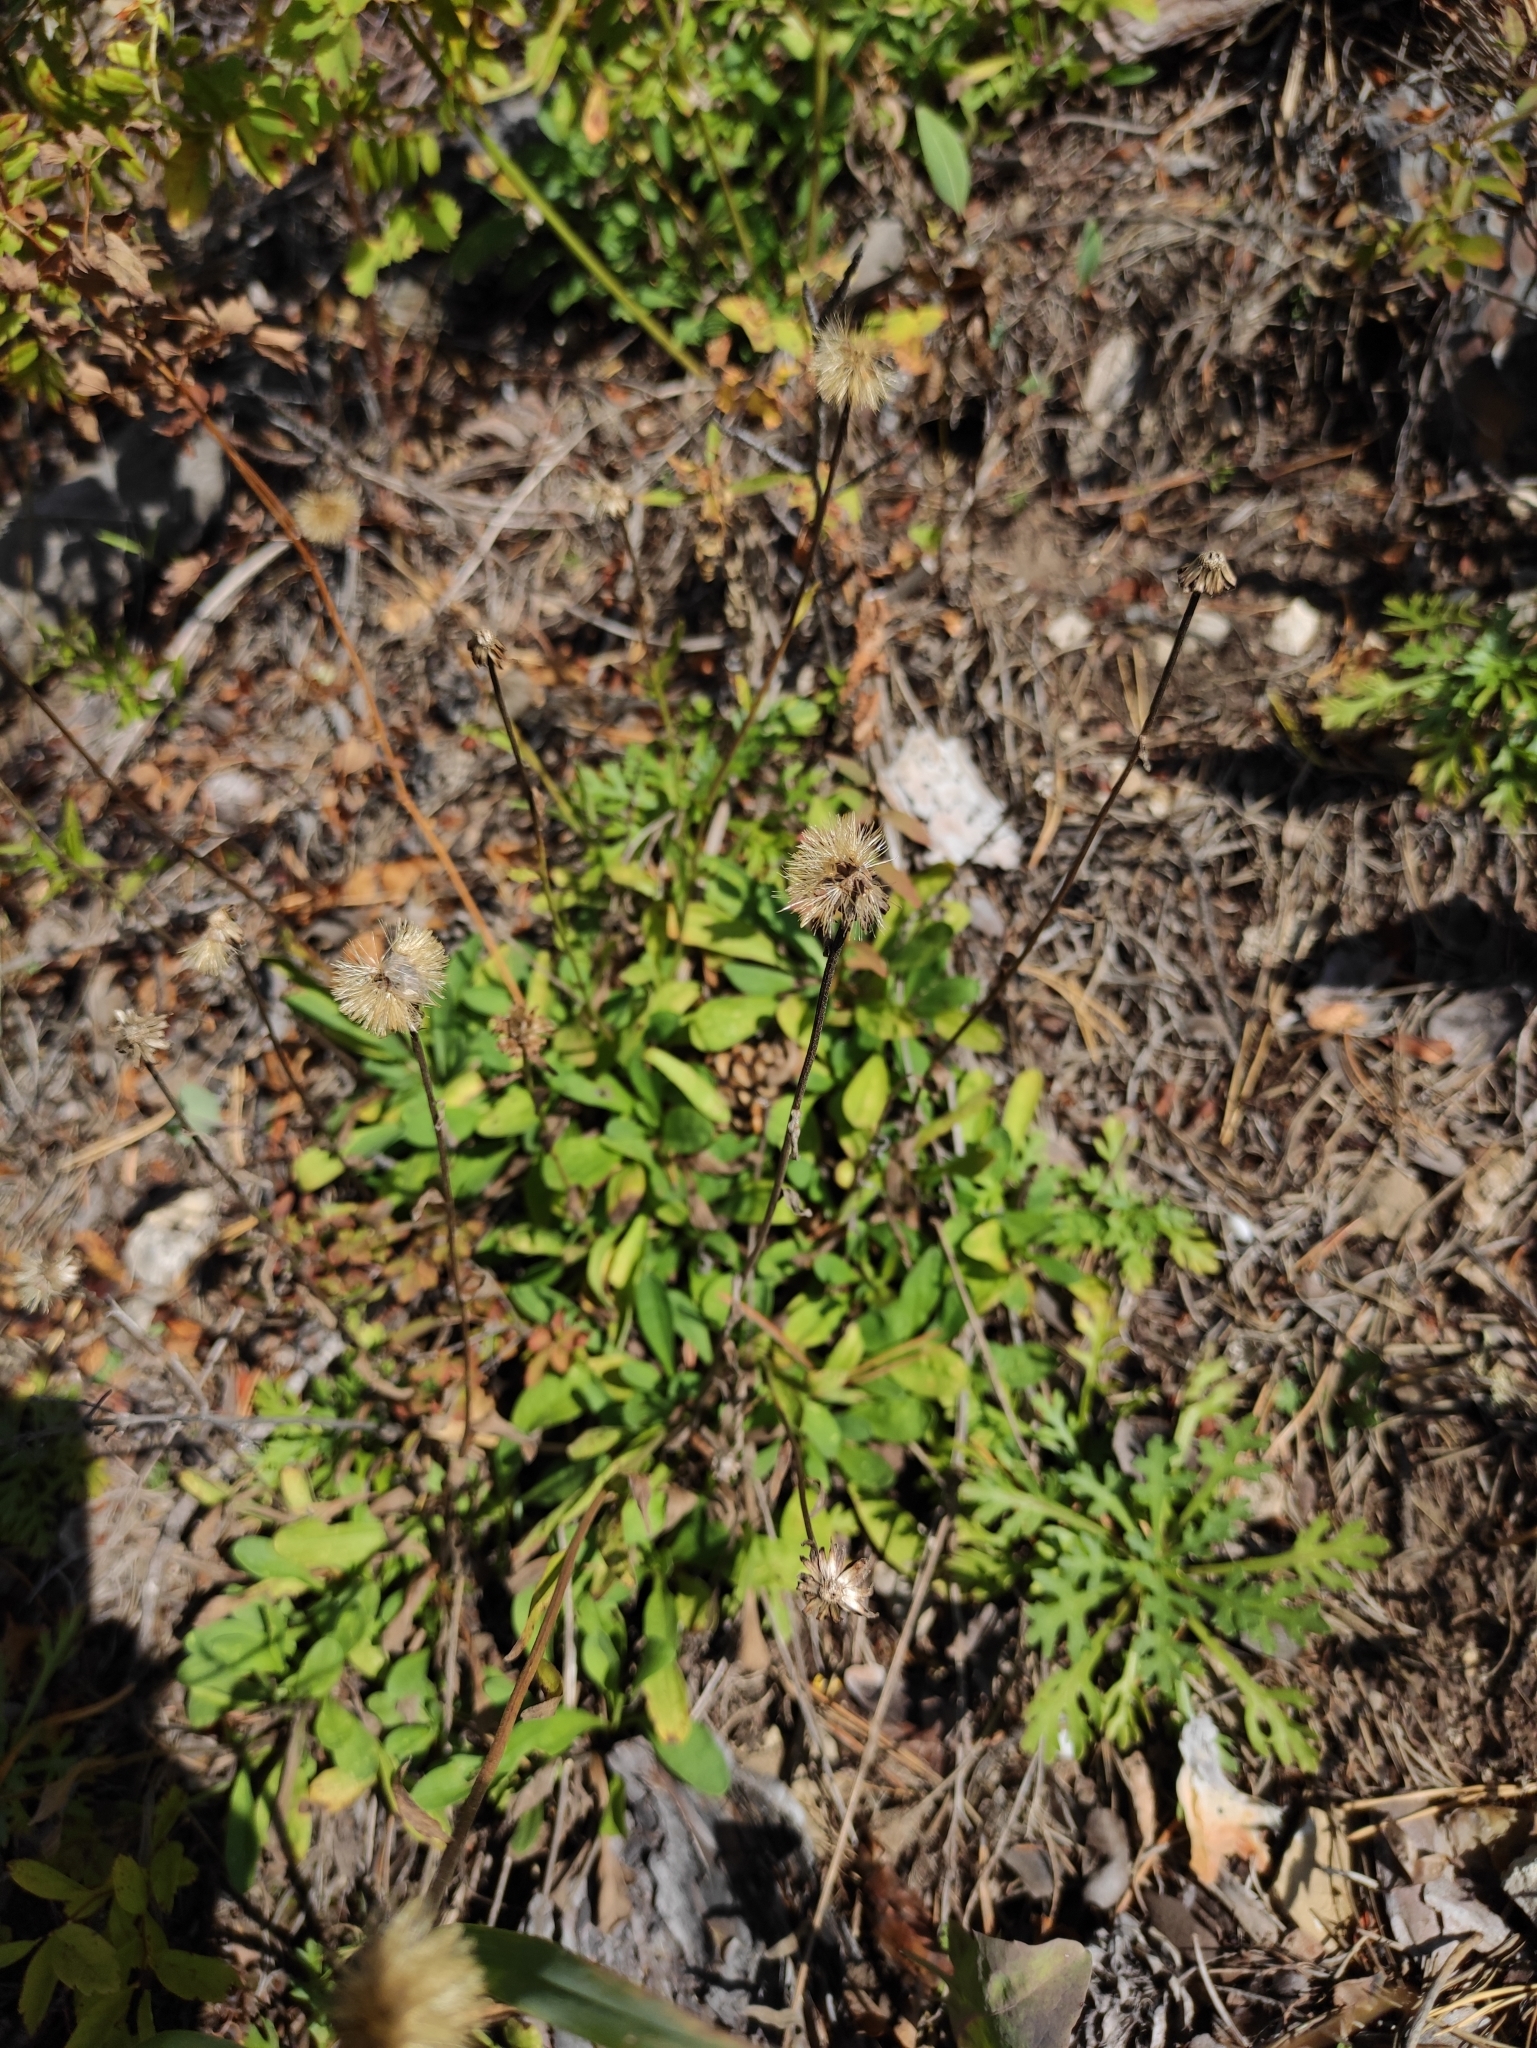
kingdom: Plantae
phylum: Tracheophyta
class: Magnoliopsida
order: Asterales
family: Asteraceae
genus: Aster
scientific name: Aster alpinus
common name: Alpine aster
